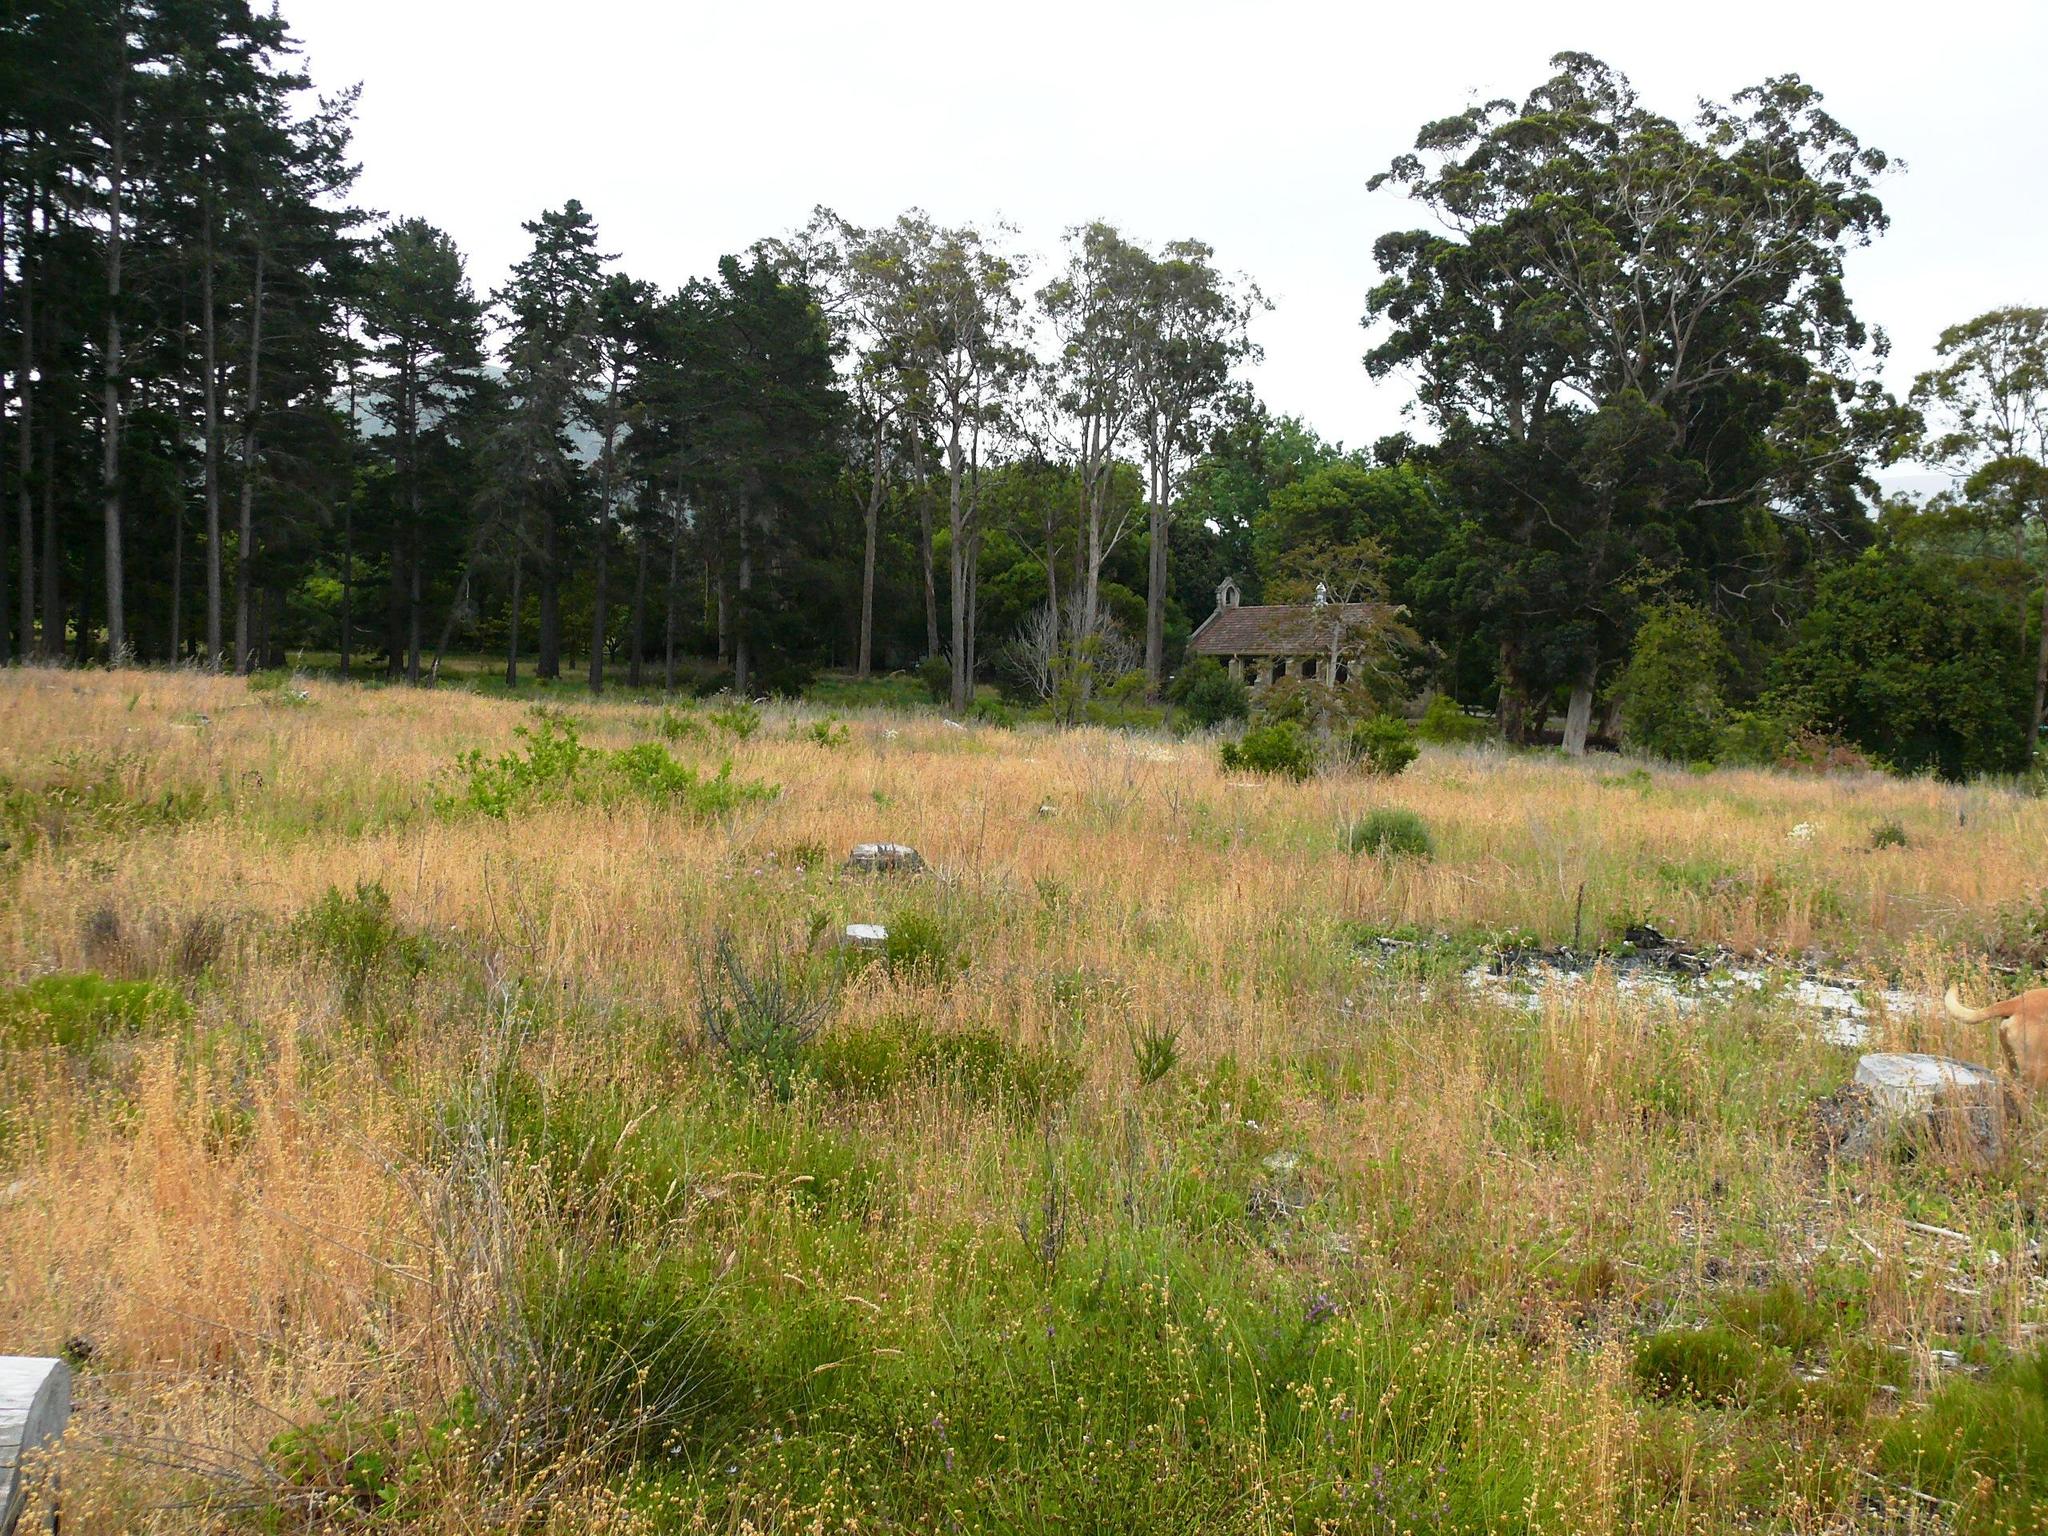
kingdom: Plantae
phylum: Tracheophyta
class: Liliopsida
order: Poales
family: Poaceae
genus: Briza
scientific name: Briza maxima
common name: Big quakinggrass
